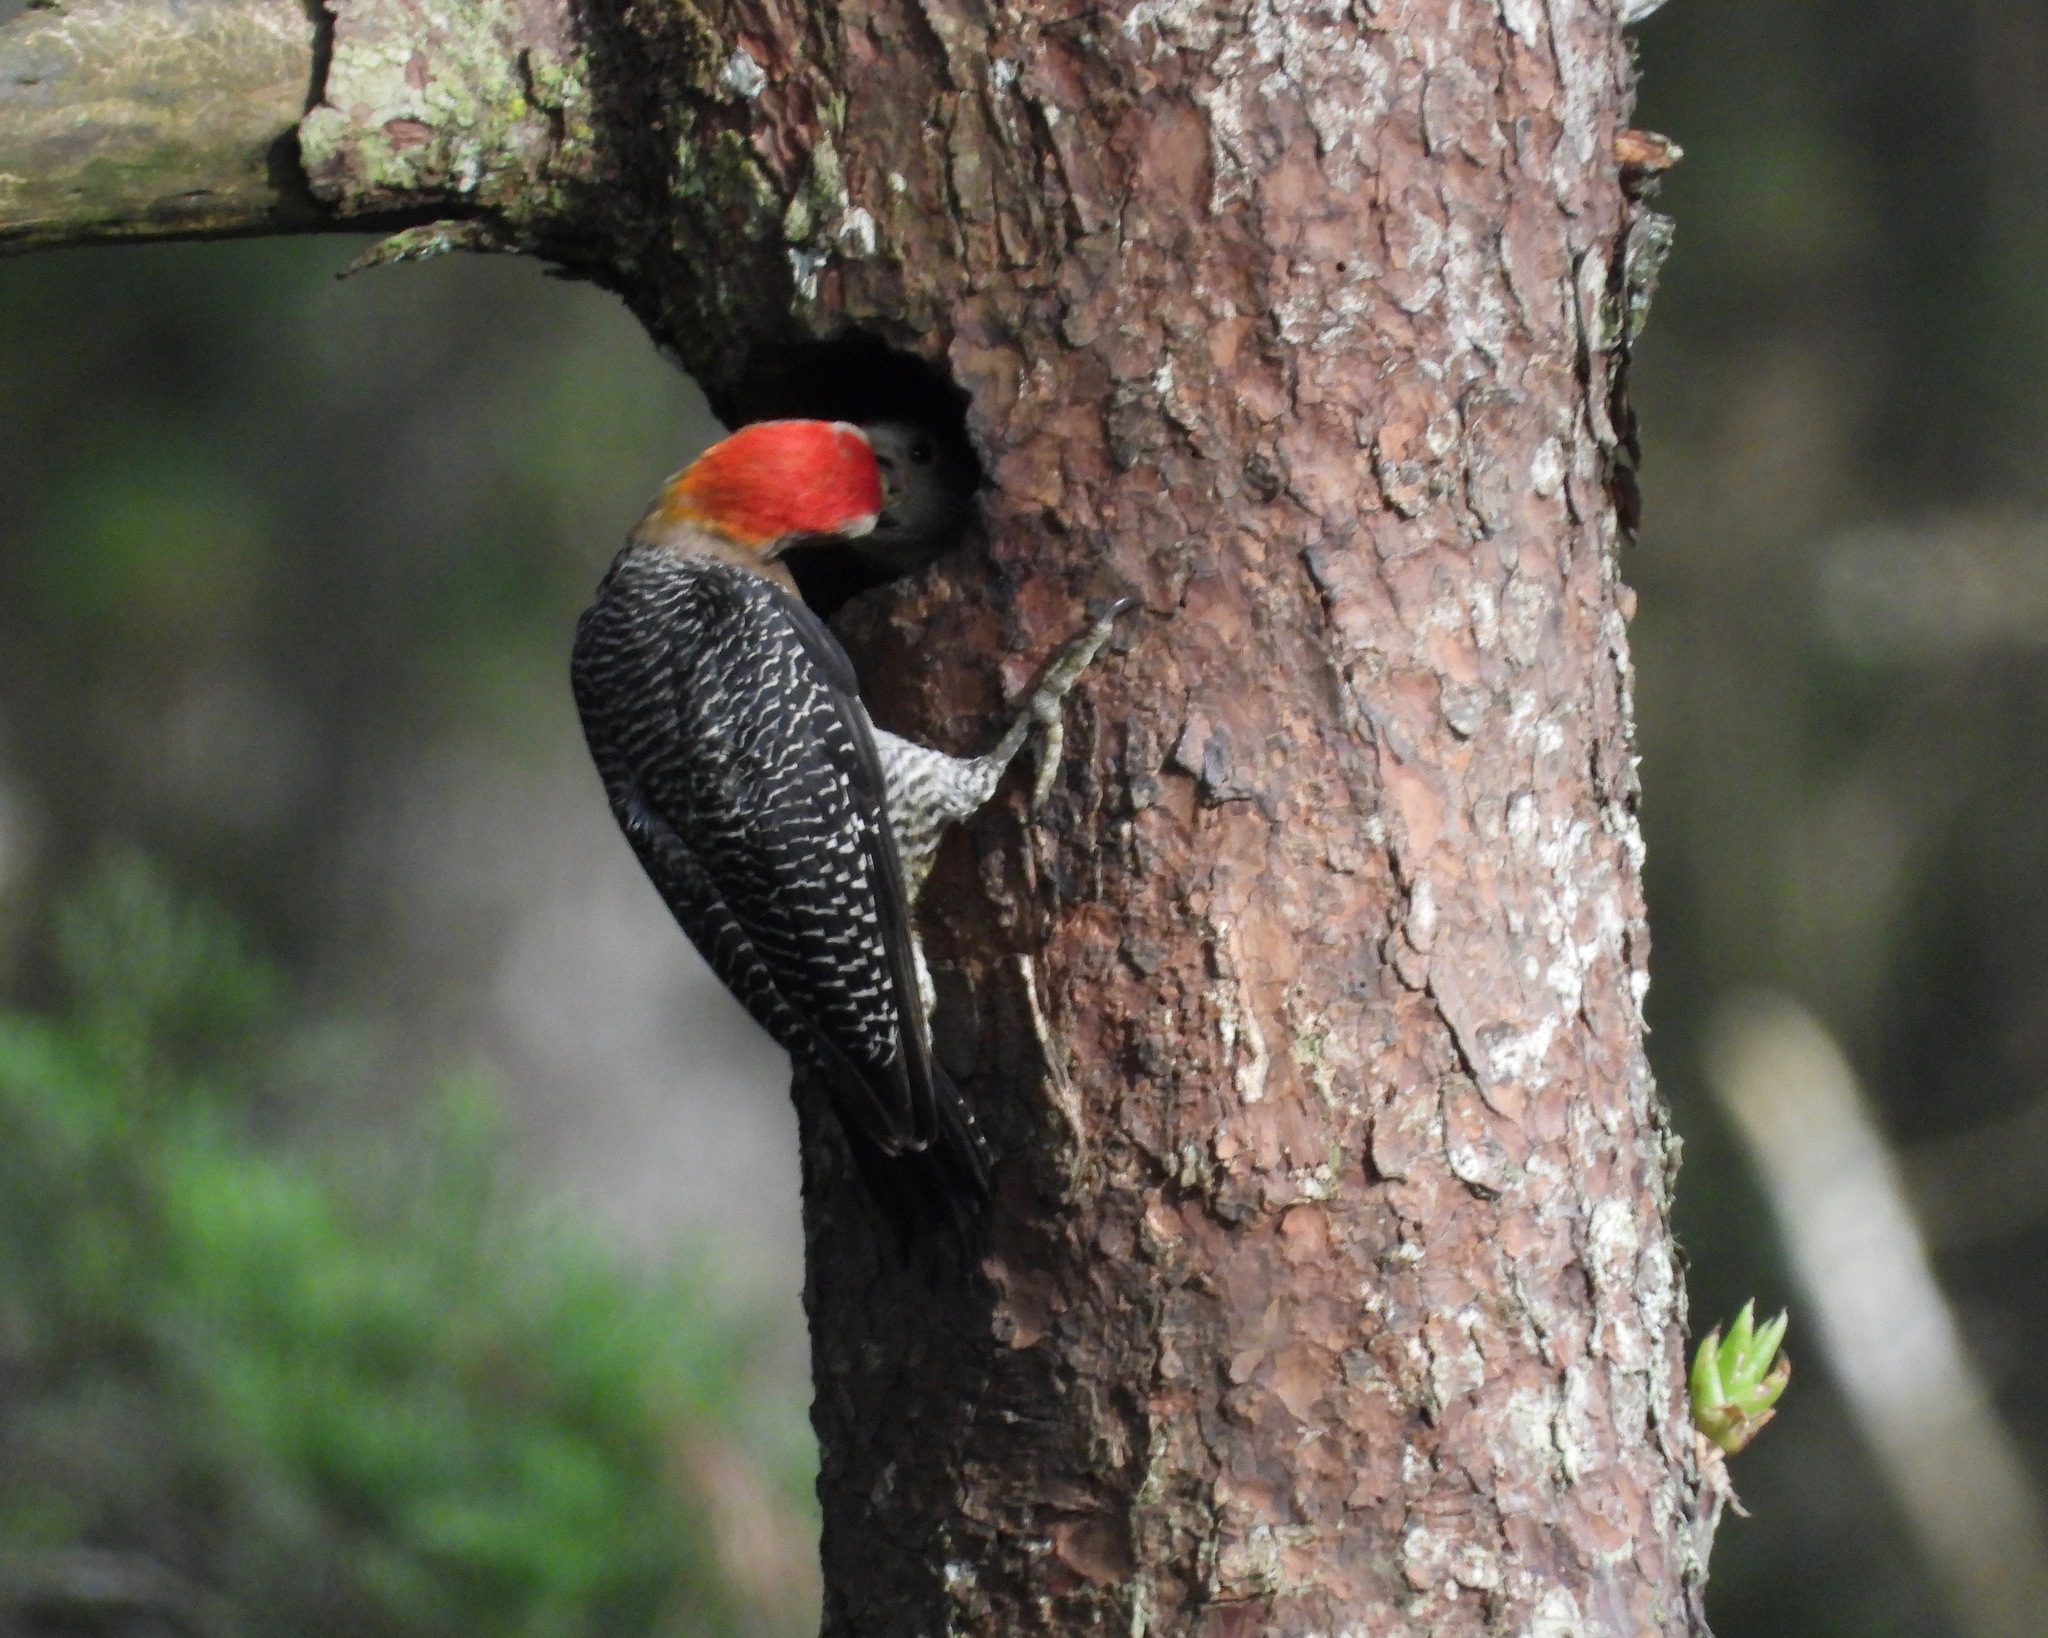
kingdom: Animalia
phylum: Chordata
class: Aves
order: Piciformes
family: Picidae
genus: Melanerpes
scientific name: Melanerpes aurifrons
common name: Golden-fronted woodpecker
